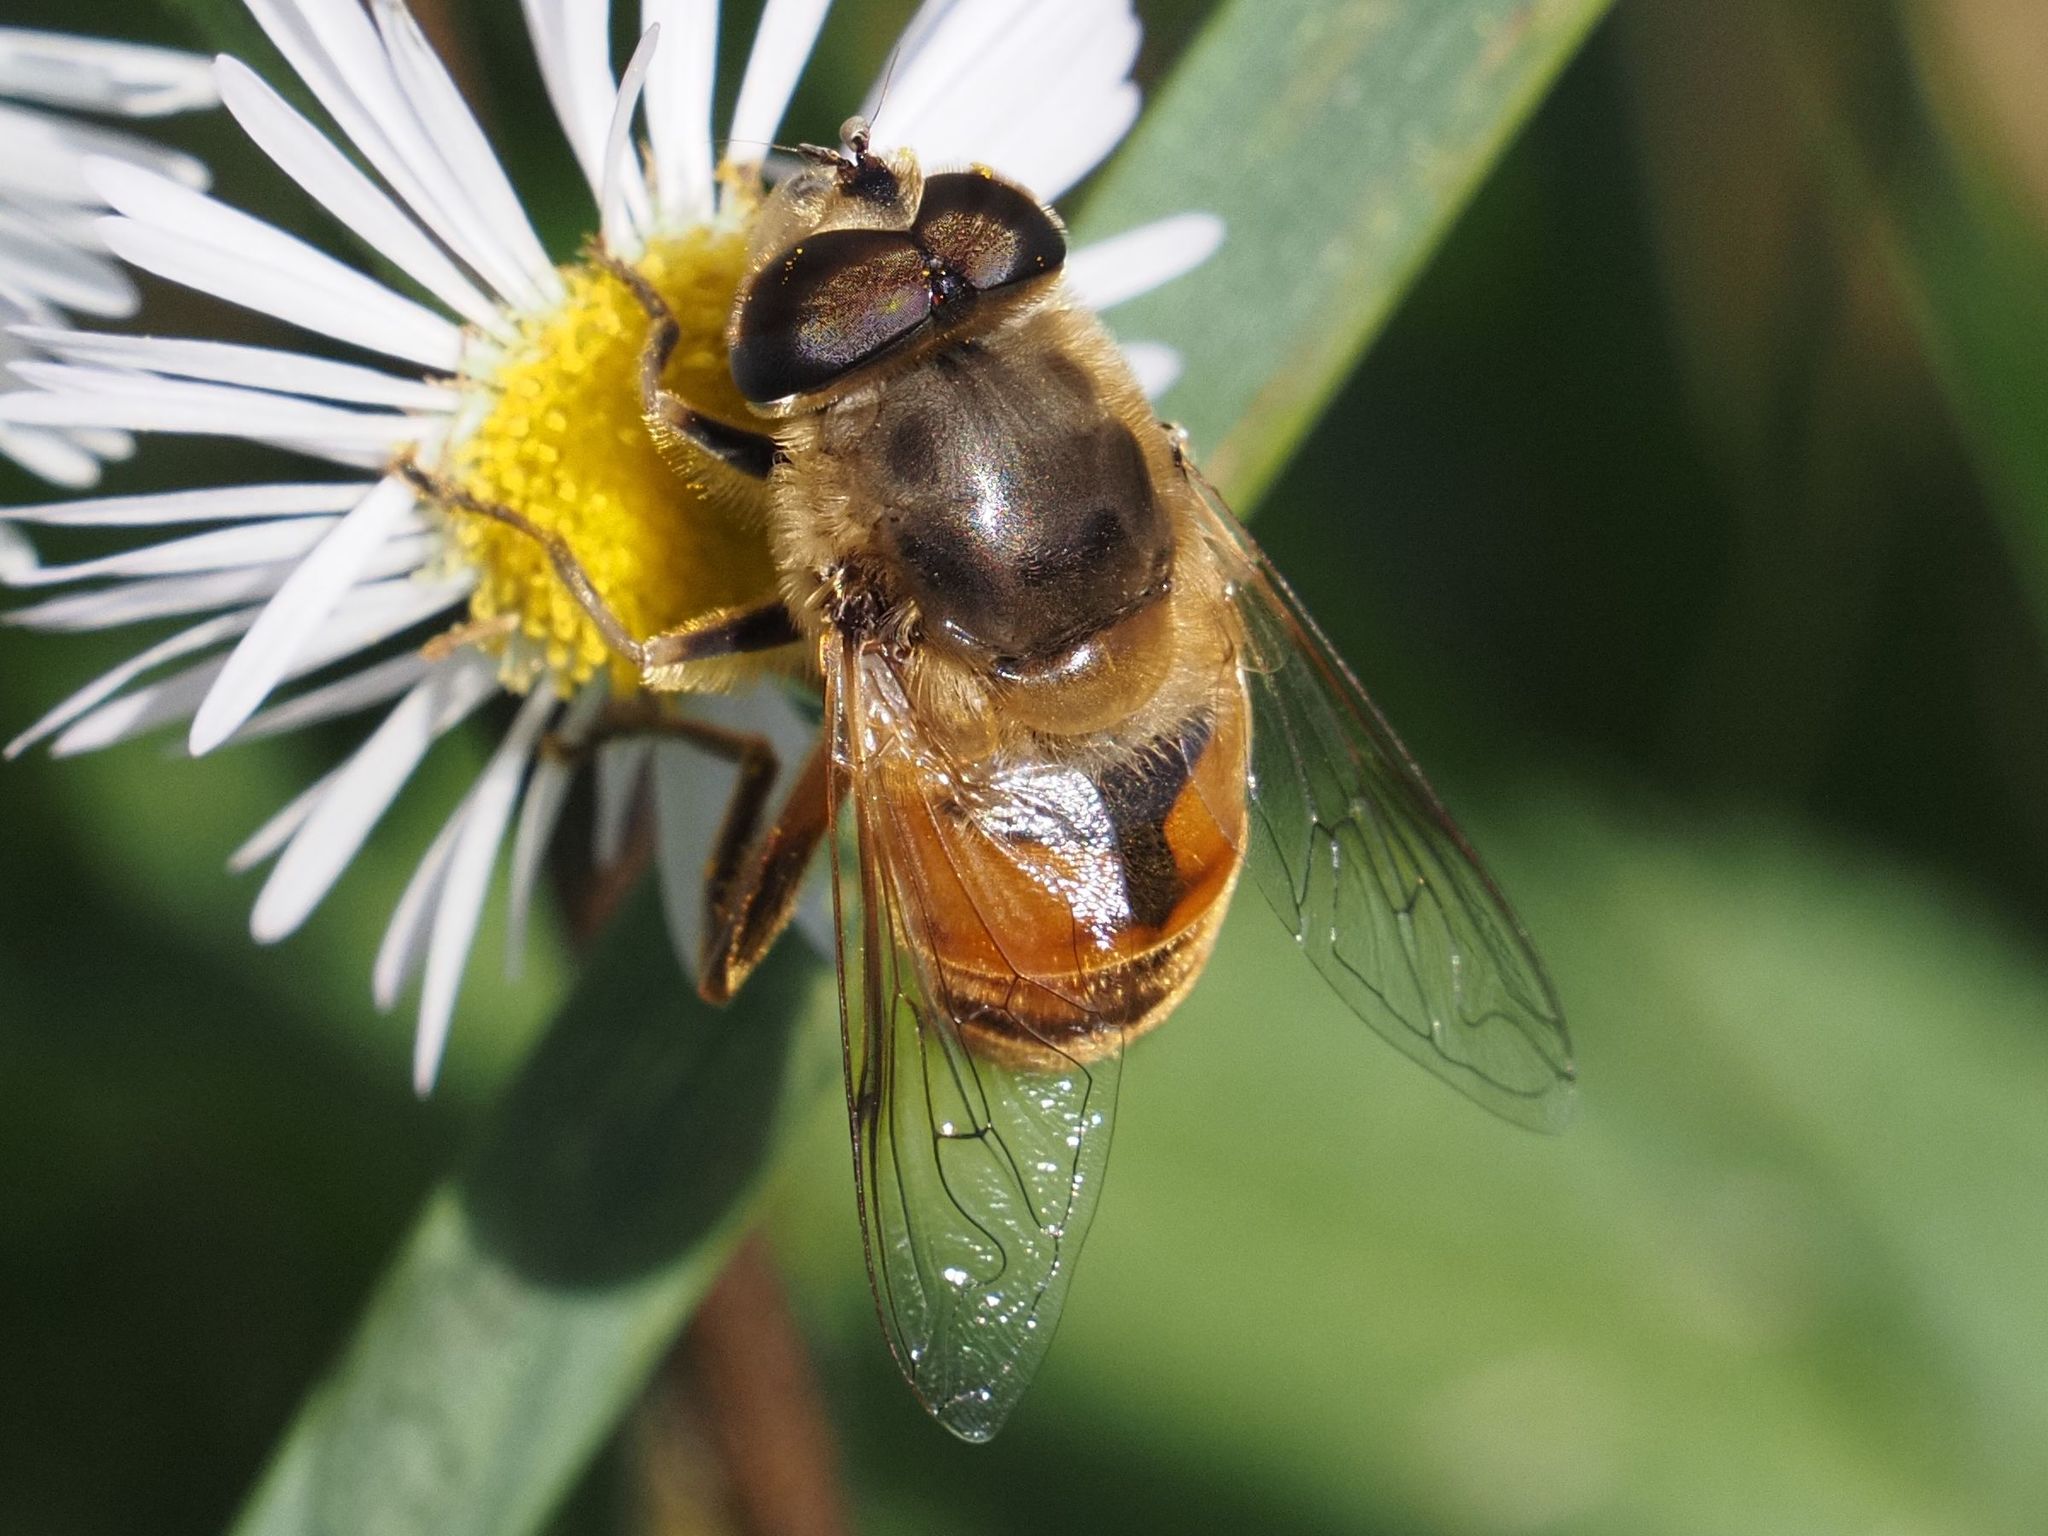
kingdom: Animalia
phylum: Arthropoda
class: Insecta
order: Diptera
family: Syrphidae
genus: Eristalis
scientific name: Eristalis tenax
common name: Drone fly
